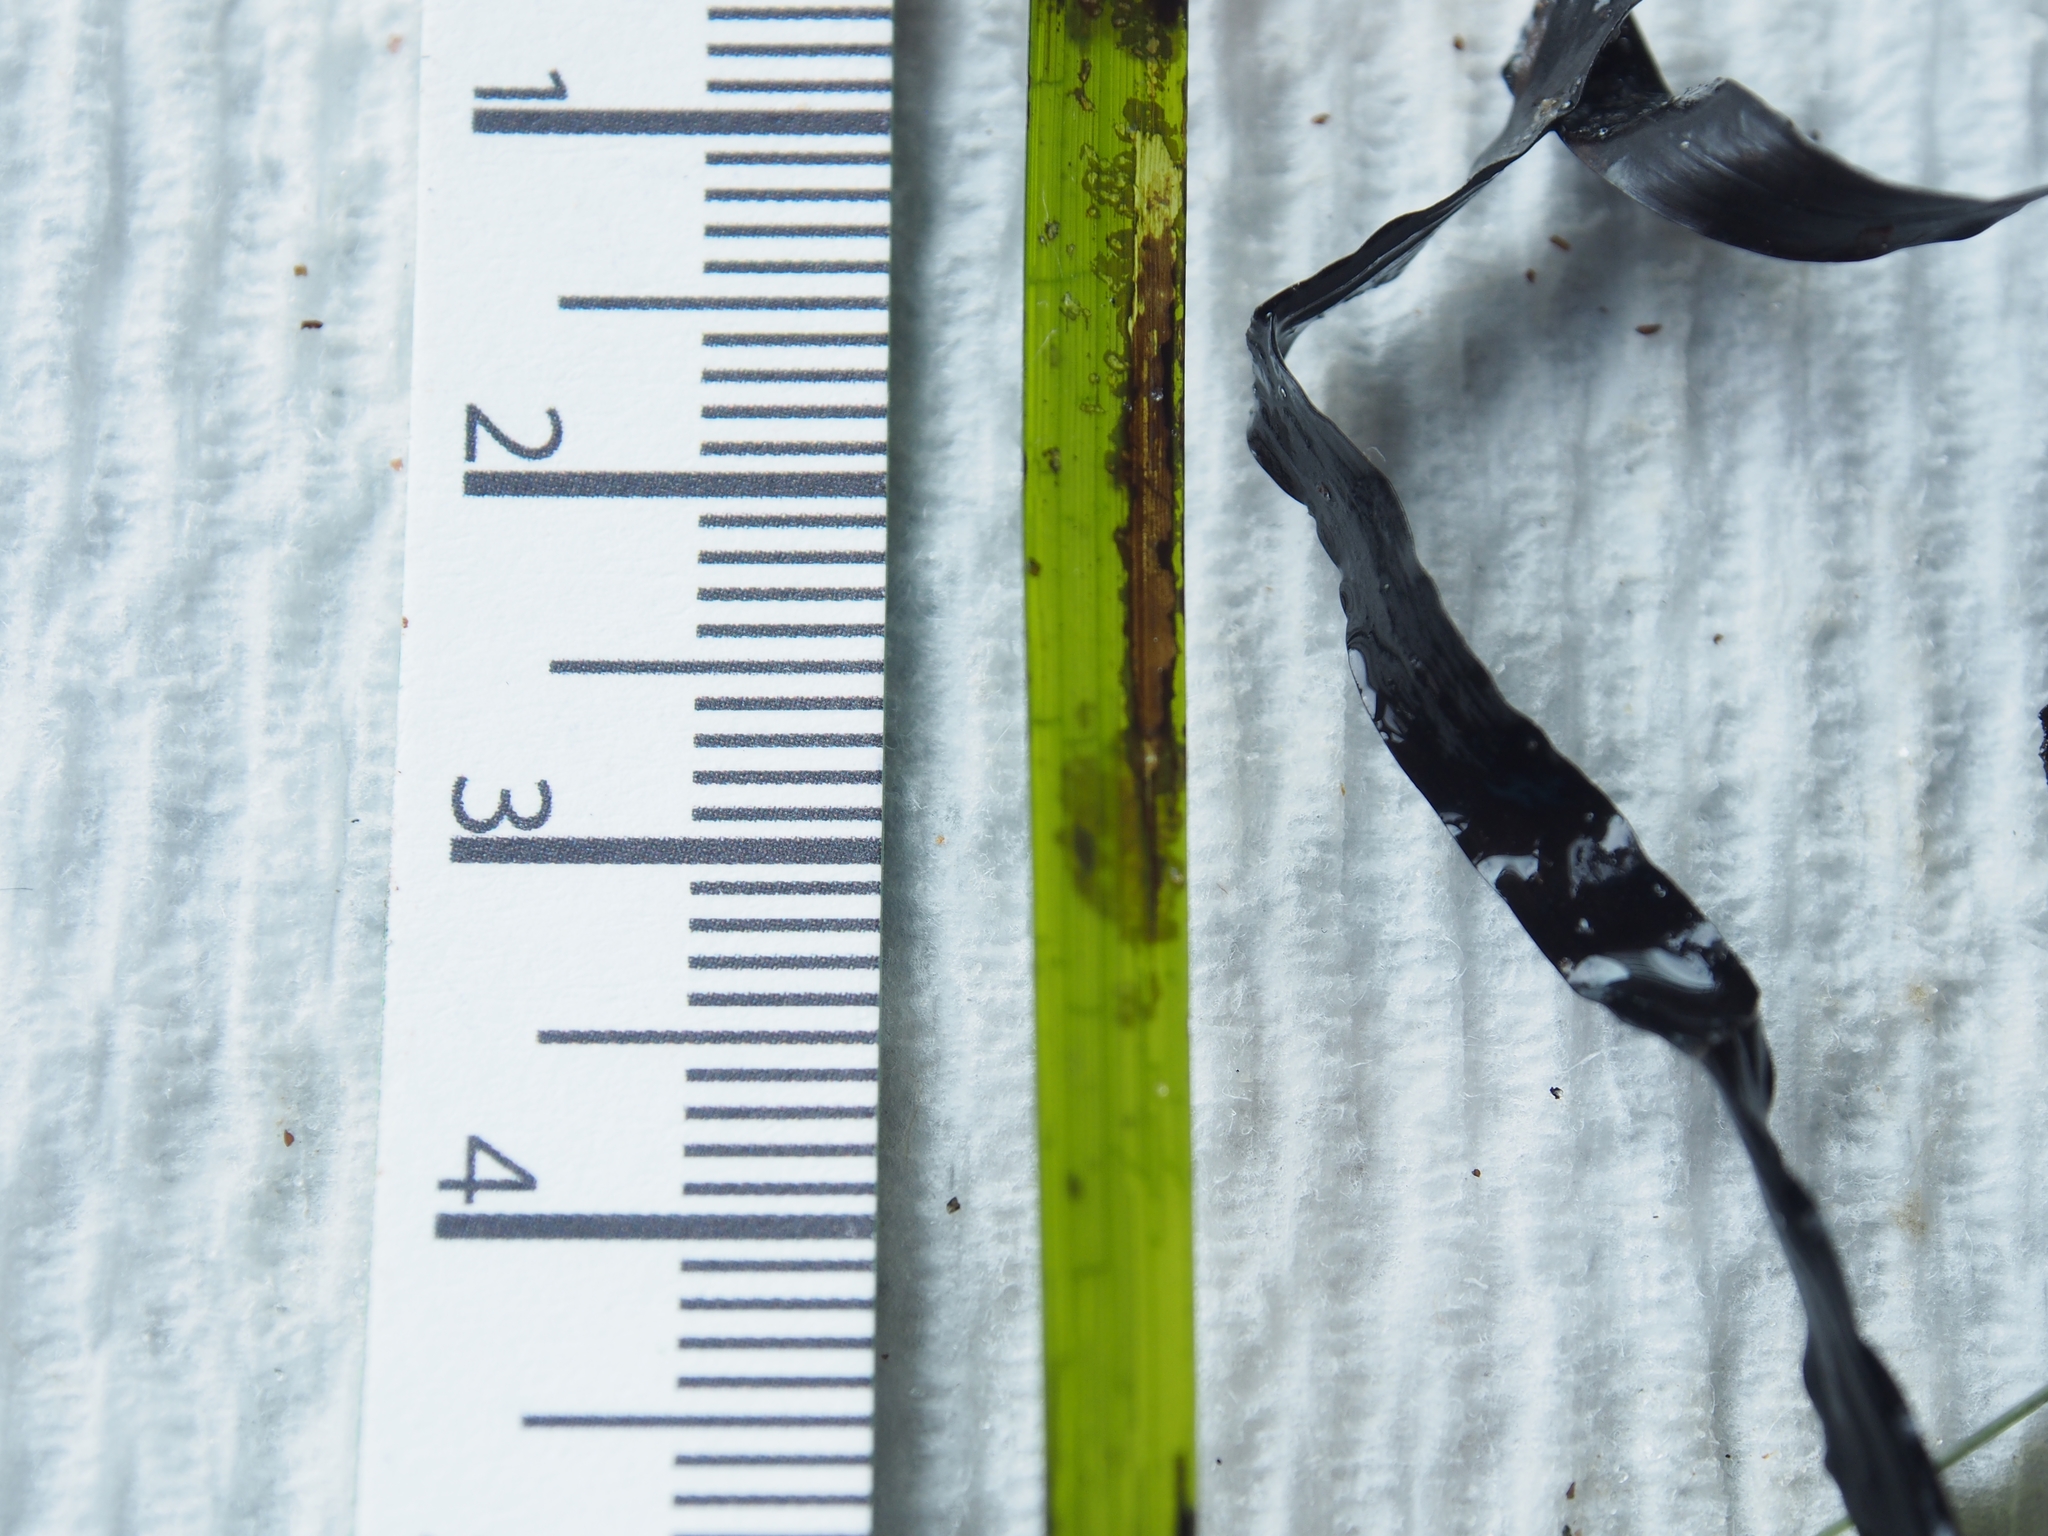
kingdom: Plantae
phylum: Tracheophyta
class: Liliopsida
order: Alismatales
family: Zosteraceae
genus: Zostera
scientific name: Zostera marina
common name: Eelgrass
